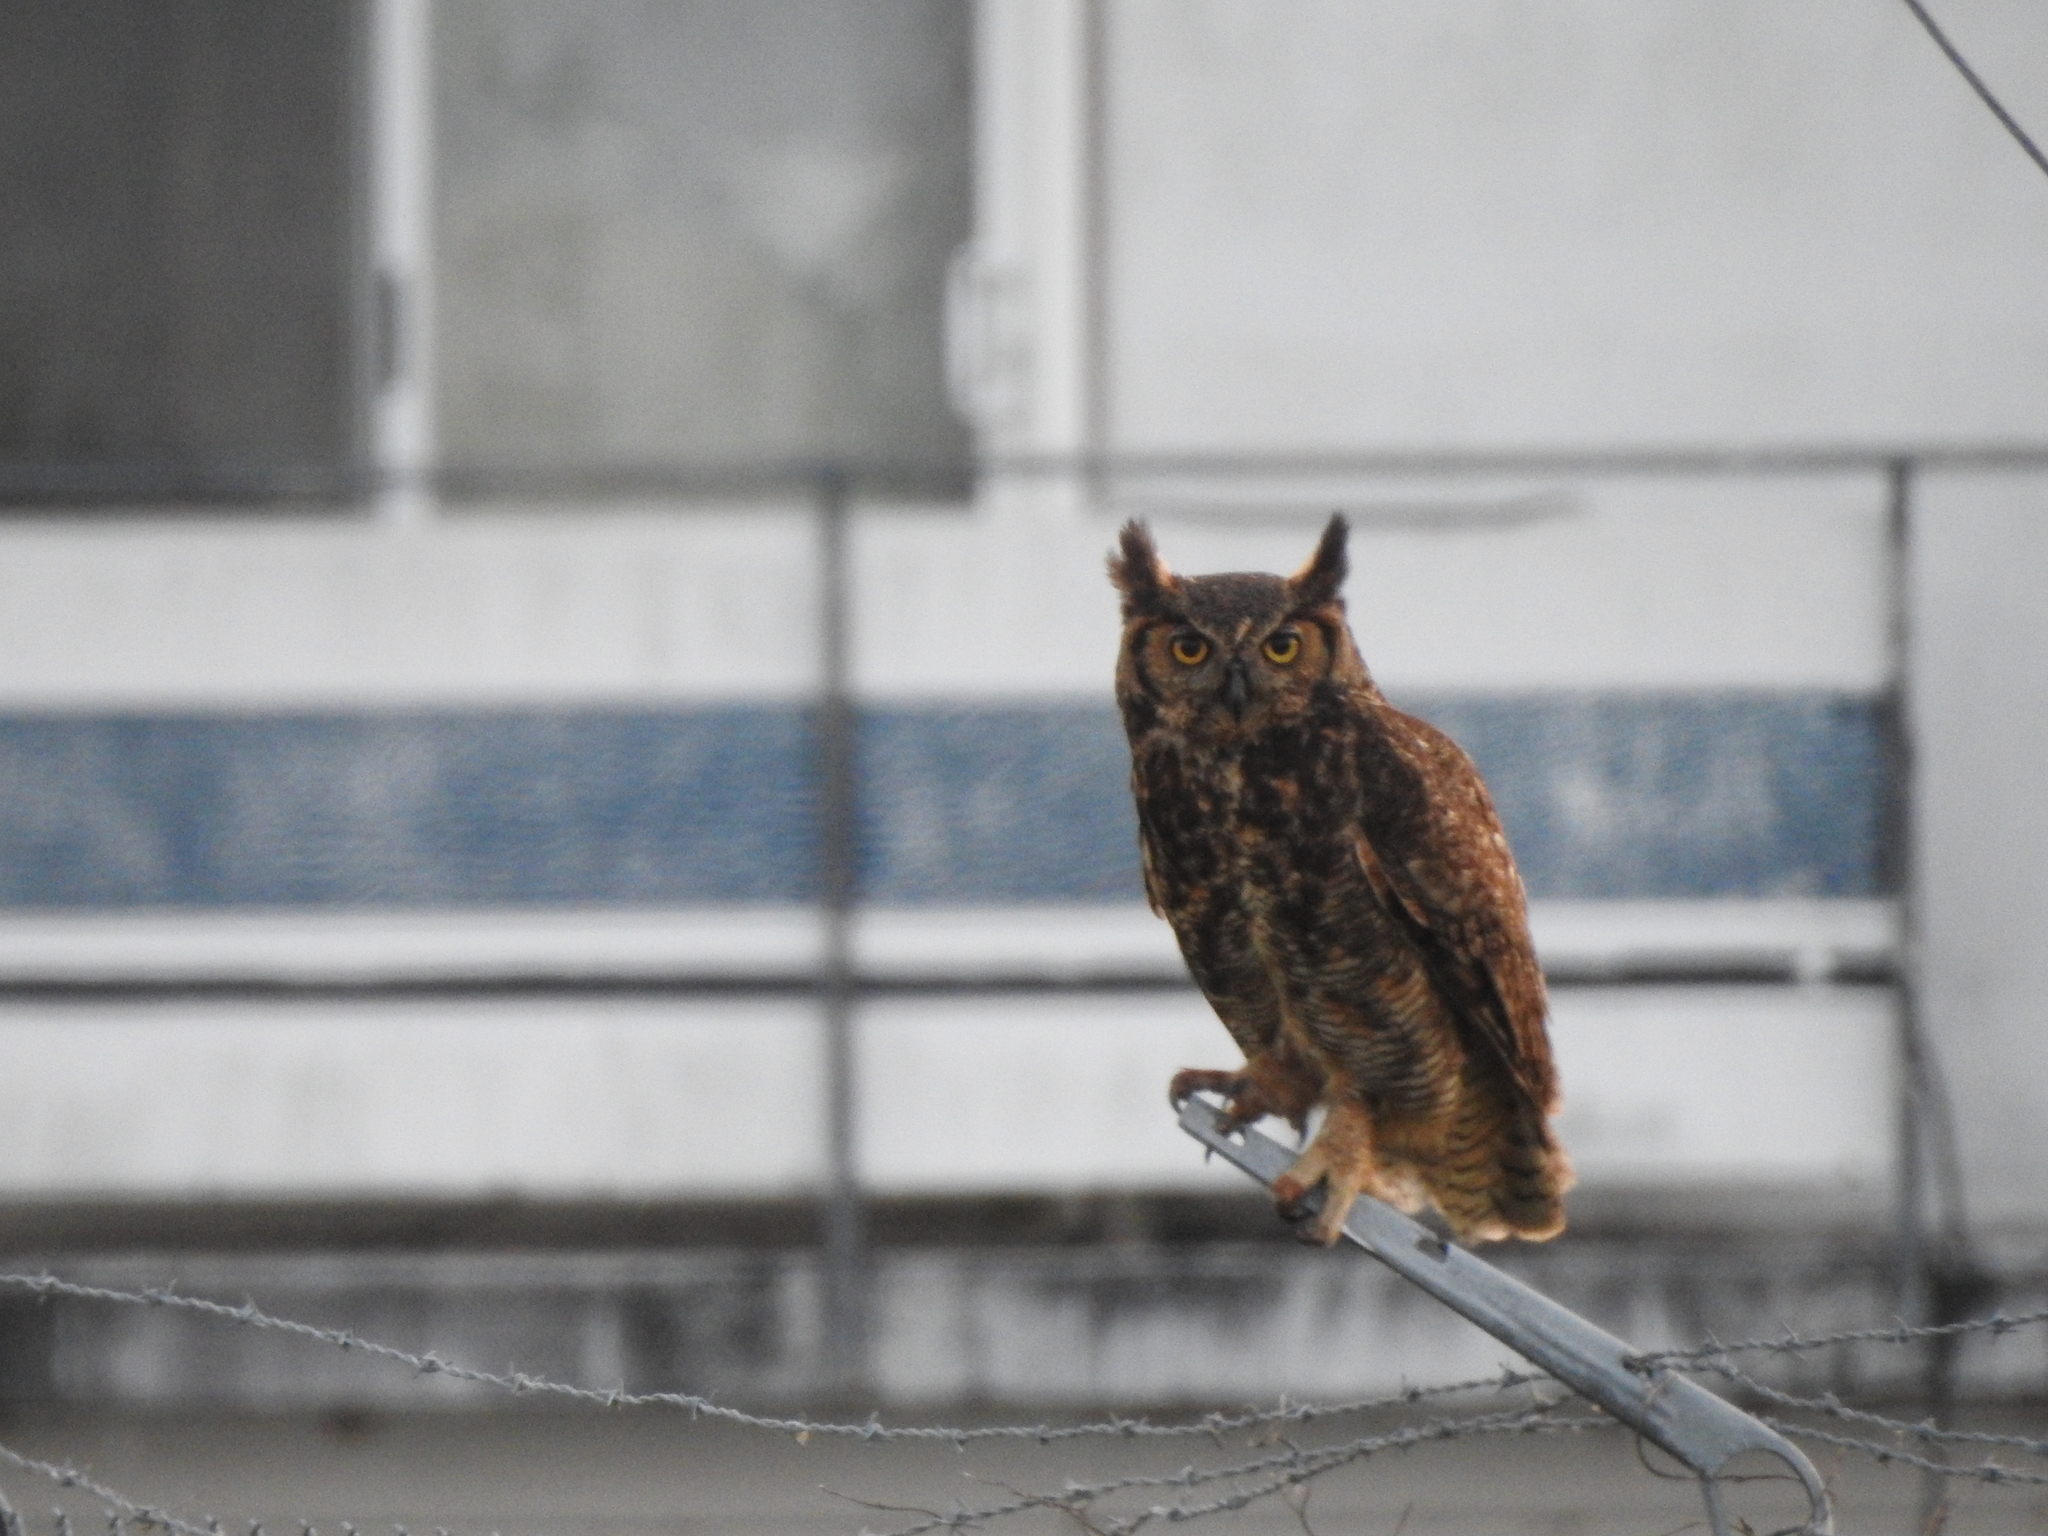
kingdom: Animalia
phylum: Chordata
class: Aves
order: Strigiformes
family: Strigidae
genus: Bubo
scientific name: Bubo virginianus
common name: Great horned owl
